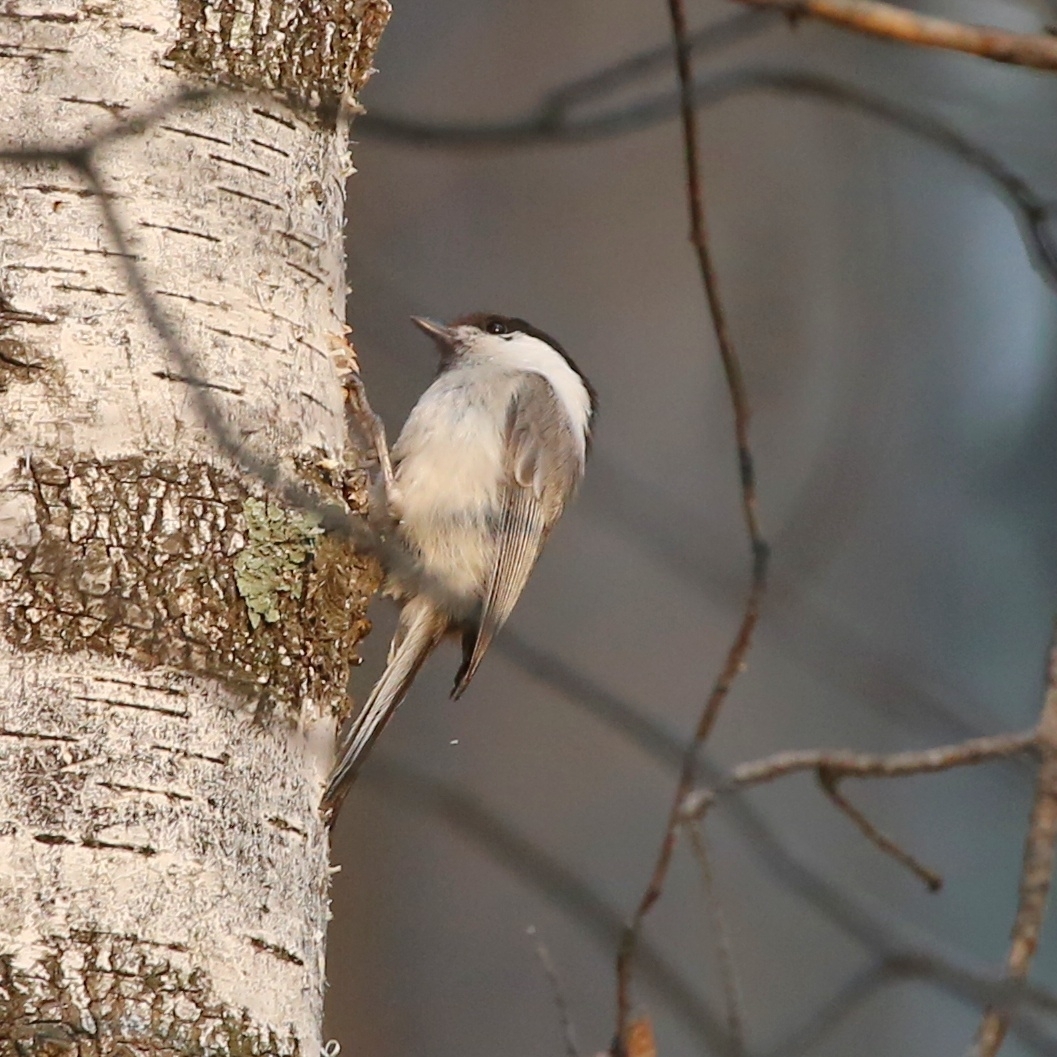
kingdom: Animalia
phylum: Chordata
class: Aves
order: Passeriformes
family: Paridae
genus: Poecile
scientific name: Poecile montanus
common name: Willow tit
